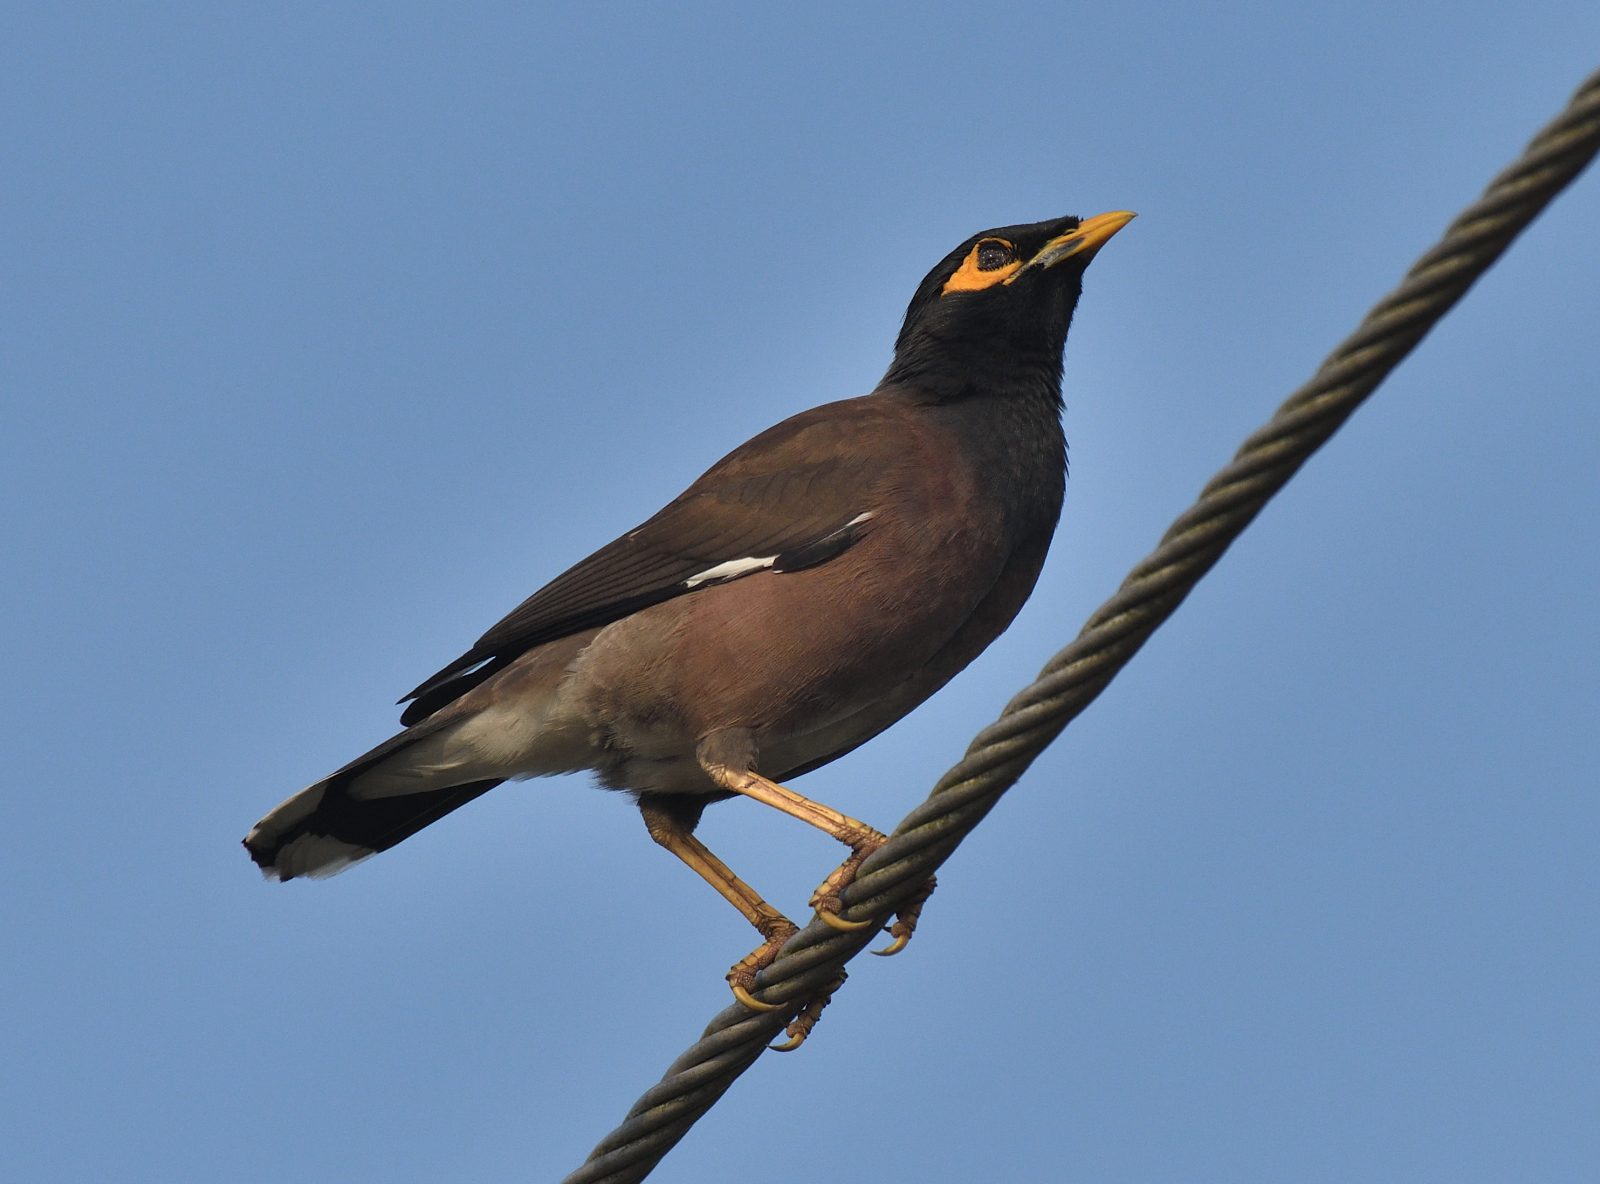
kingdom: Animalia
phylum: Chordata
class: Aves
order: Passeriformes
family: Sturnidae
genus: Acridotheres
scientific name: Acridotheres tristis
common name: Common myna
